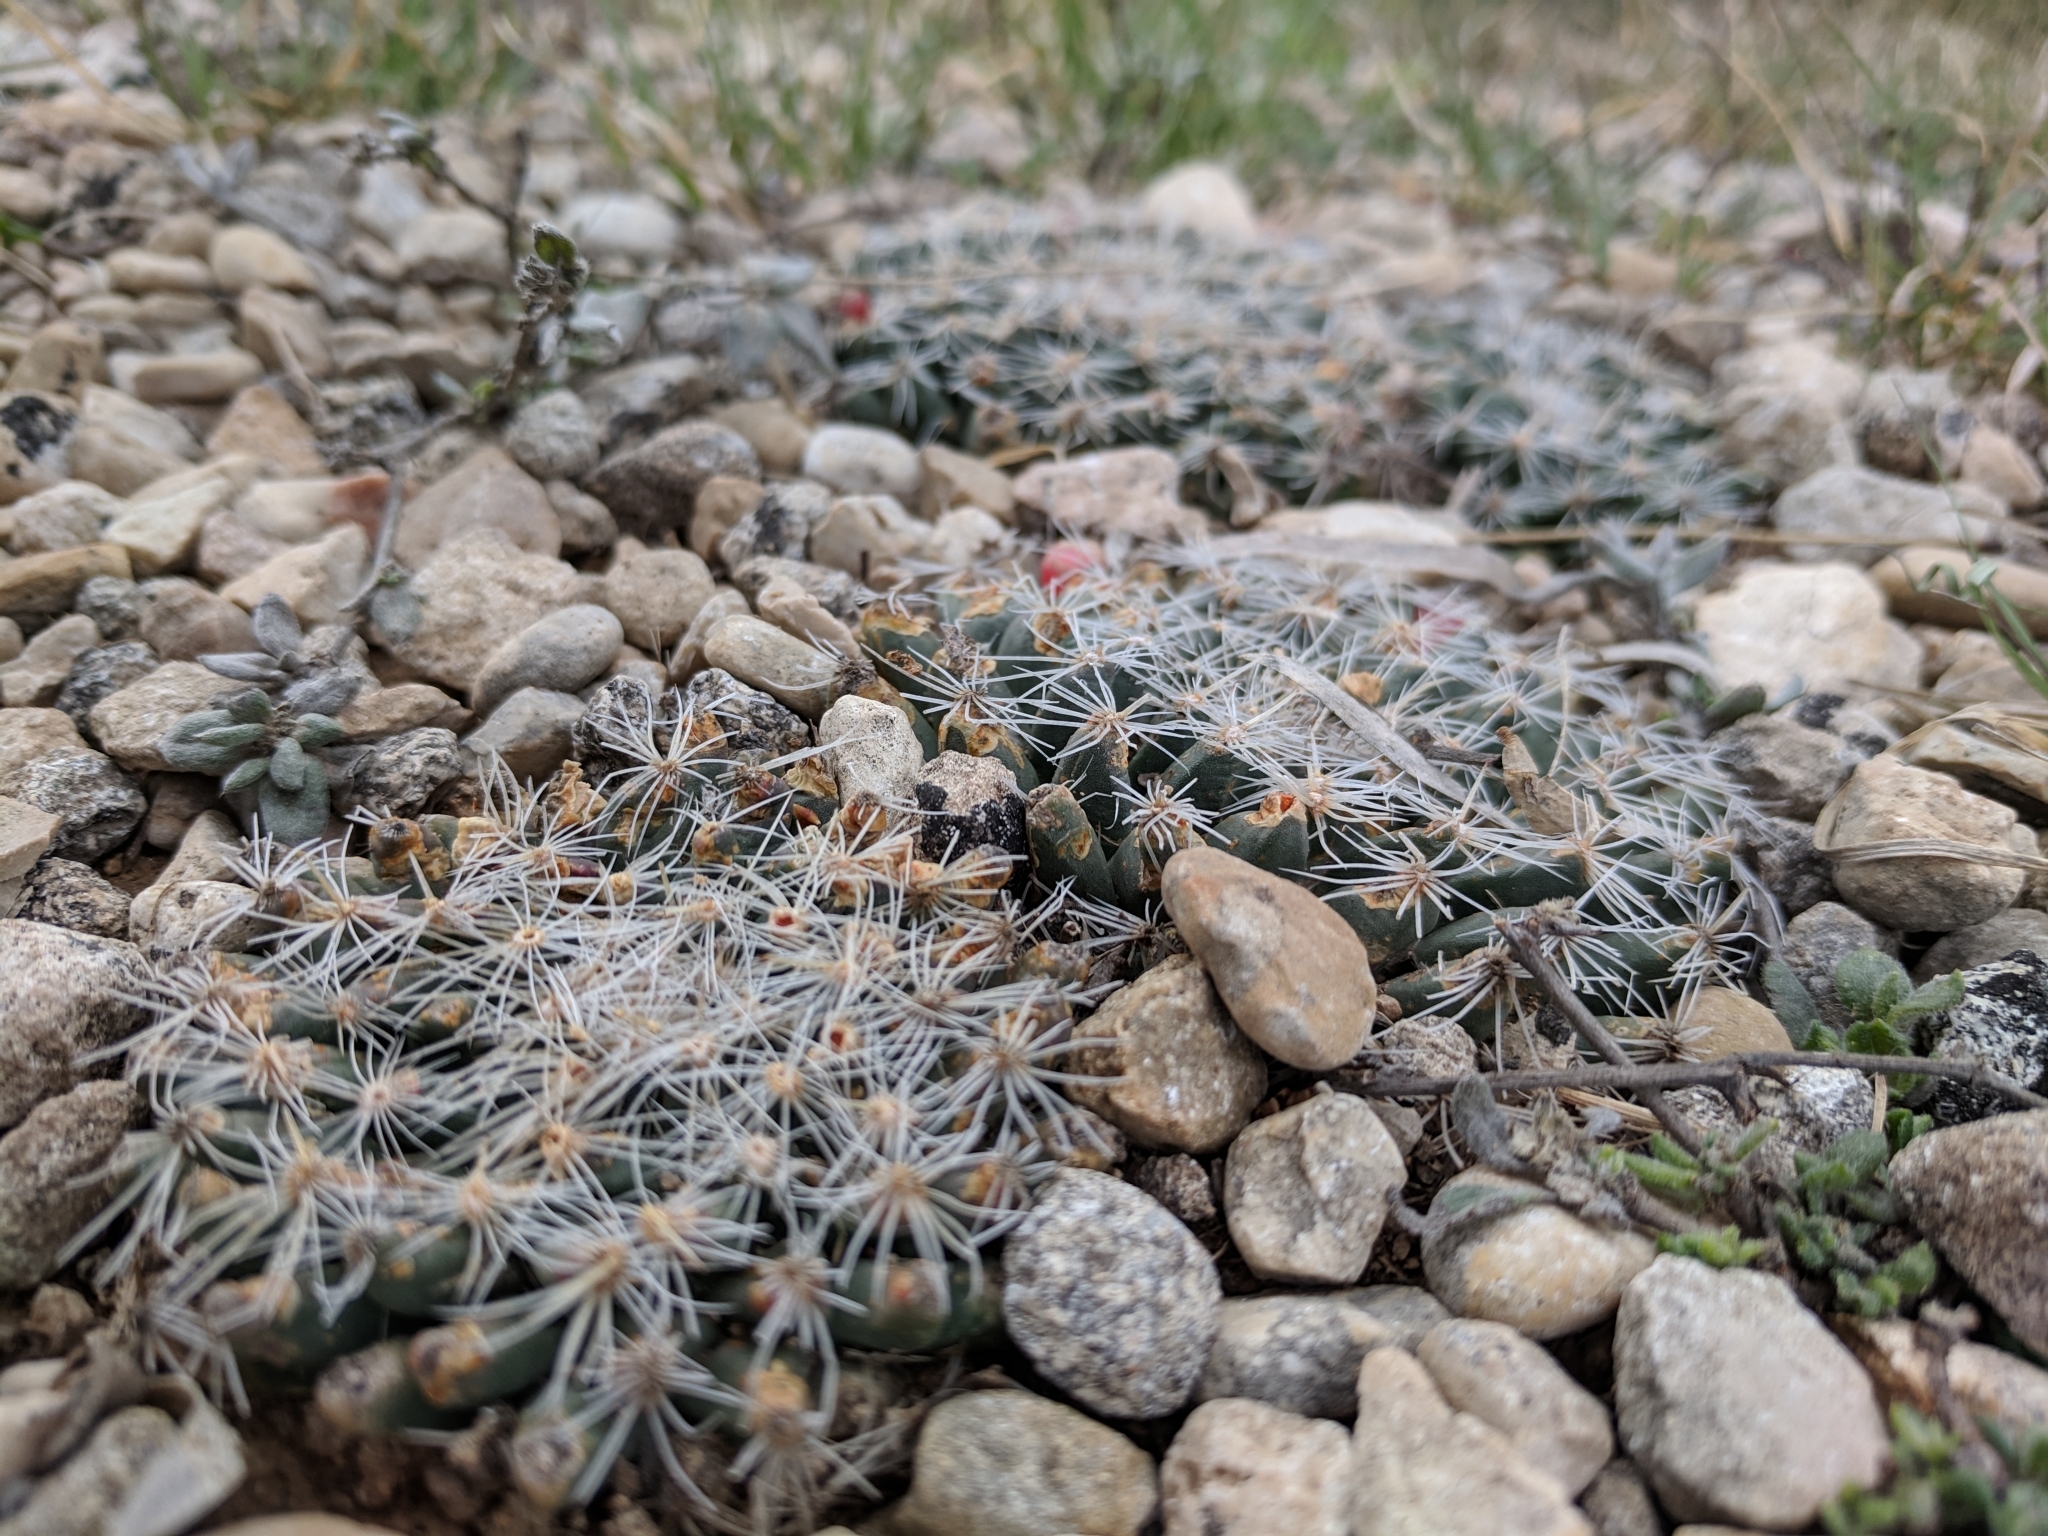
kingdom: Plantae
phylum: Tracheophyta
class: Magnoliopsida
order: Caryophyllales
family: Cactaceae
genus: Mammillaria
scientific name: Mammillaria heyderi
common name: Little nipple cactus
